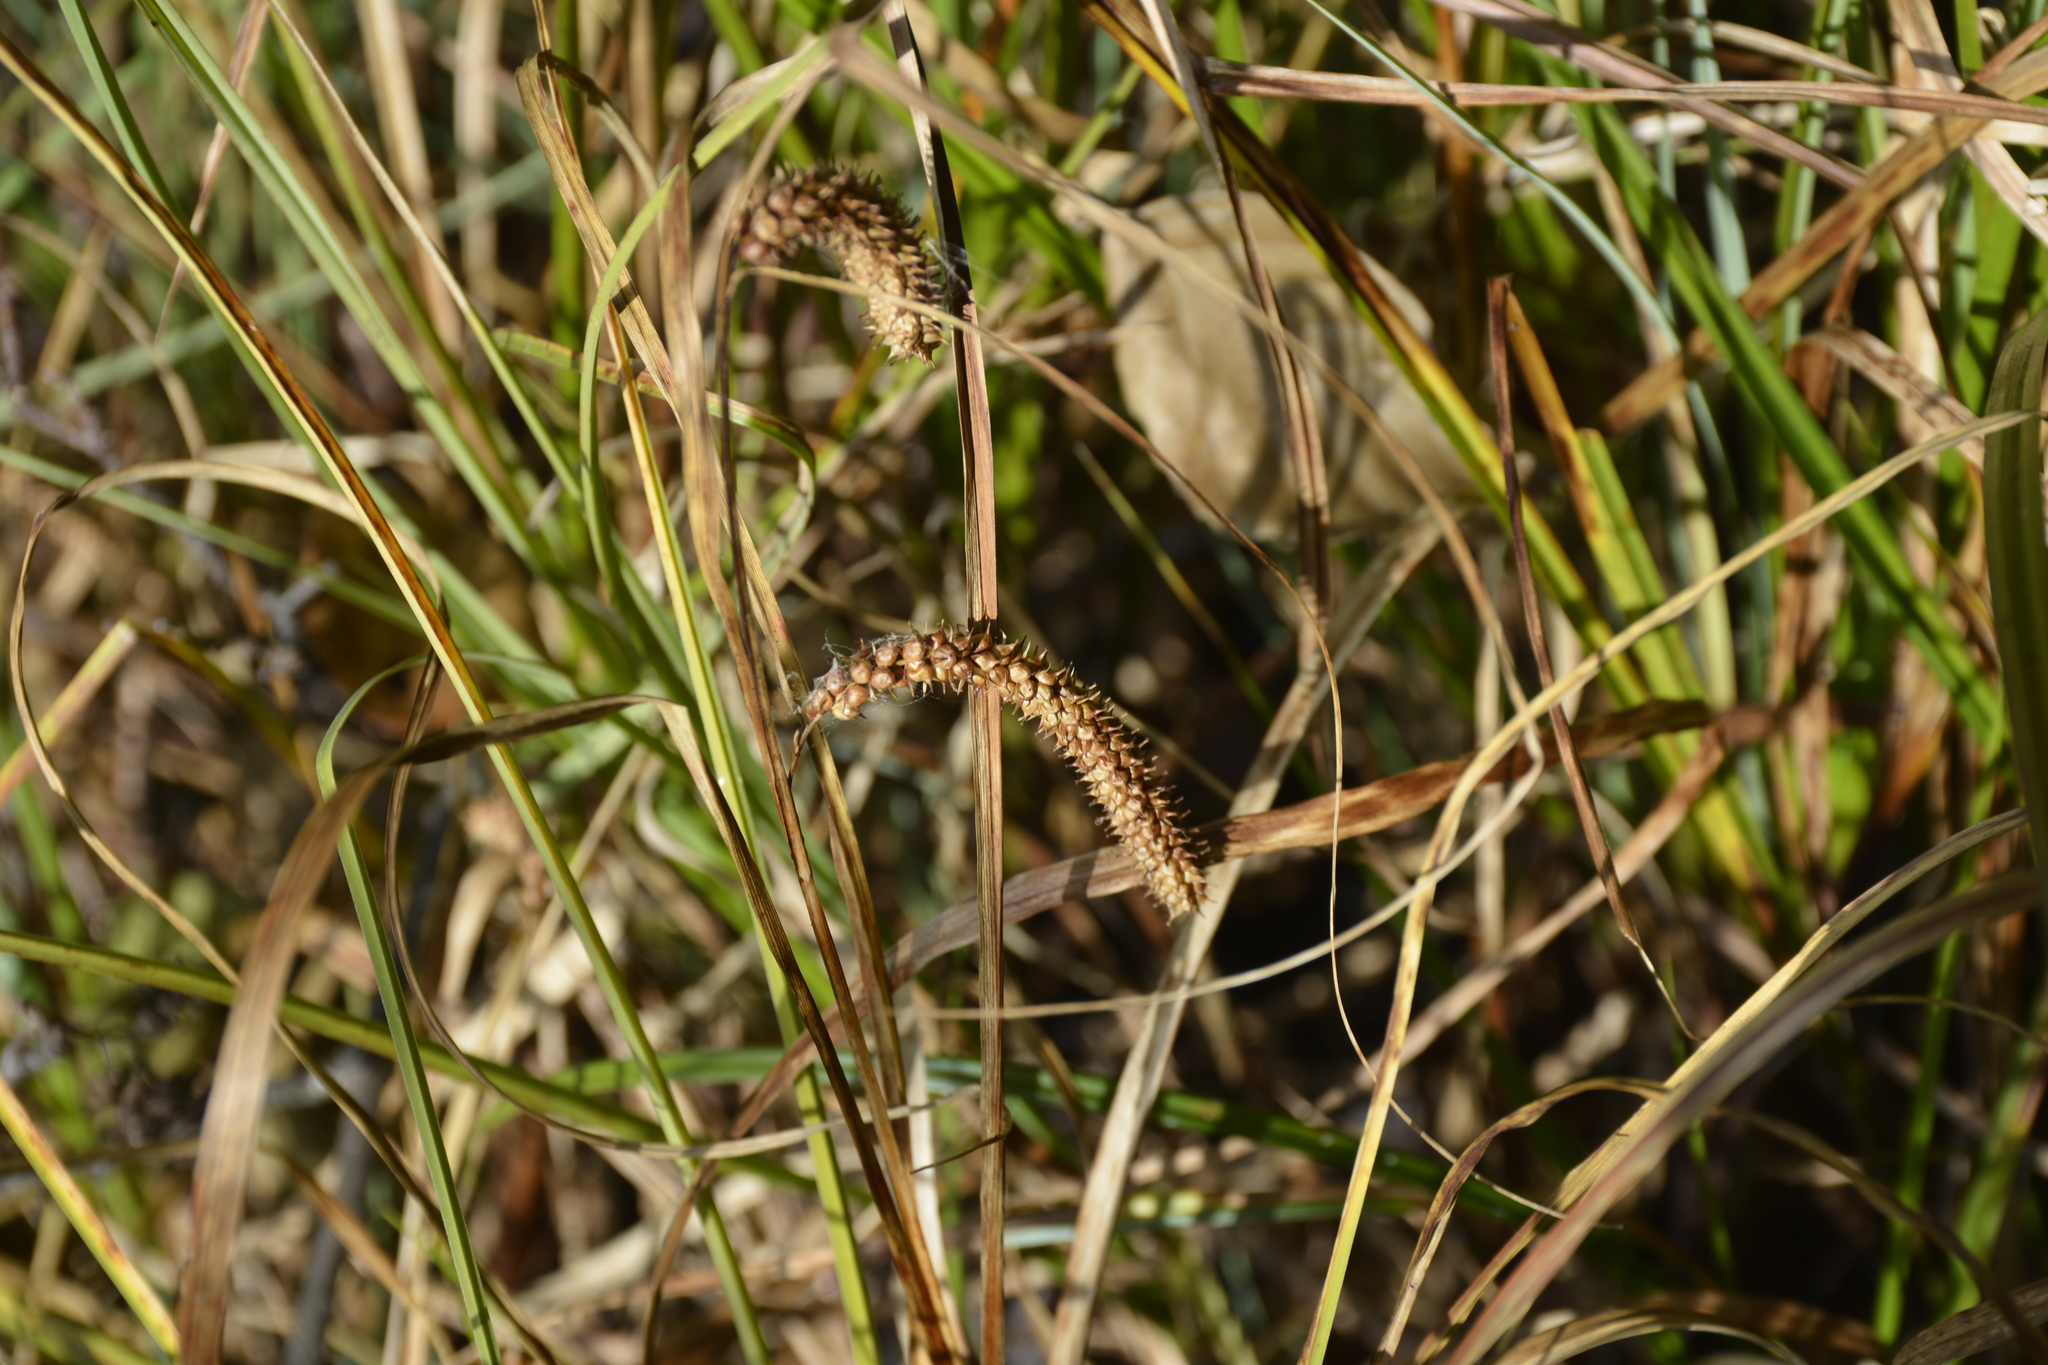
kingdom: Plantae
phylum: Tracheophyta
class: Liliopsida
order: Poales
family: Cyperaceae
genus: Carex
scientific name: Carex rostrata
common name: Bottle sedge
